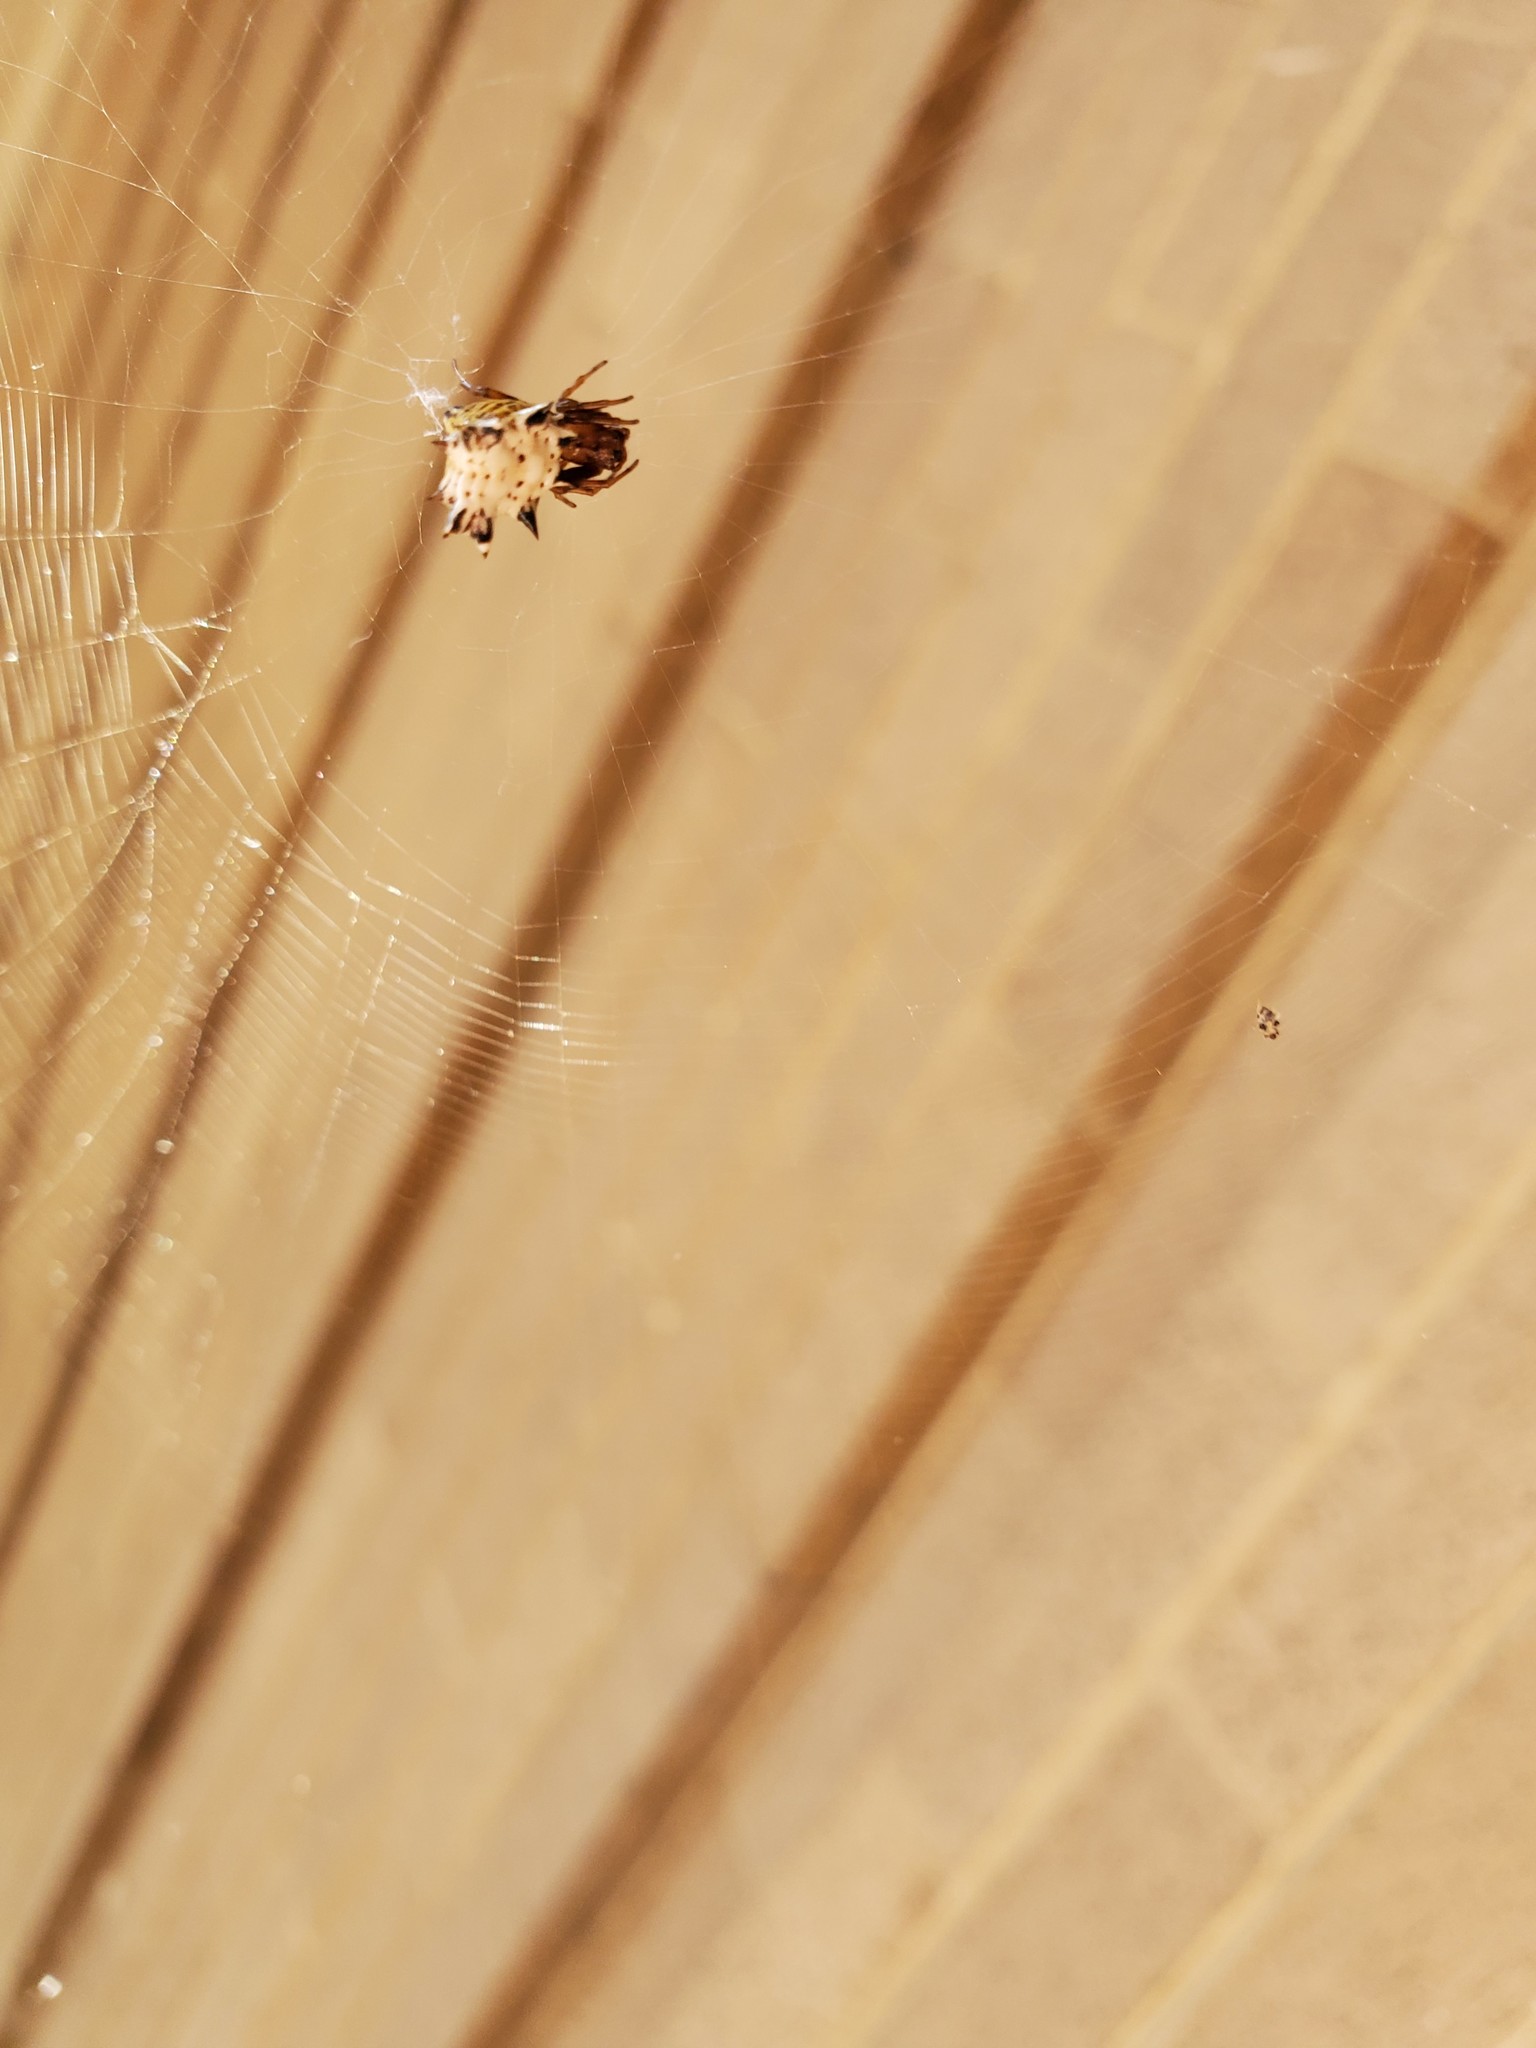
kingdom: Animalia
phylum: Arthropoda
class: Arachnida
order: Araneae
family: Araneidae
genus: Micrathena
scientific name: Micrathena gracilis
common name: Orb weavers
